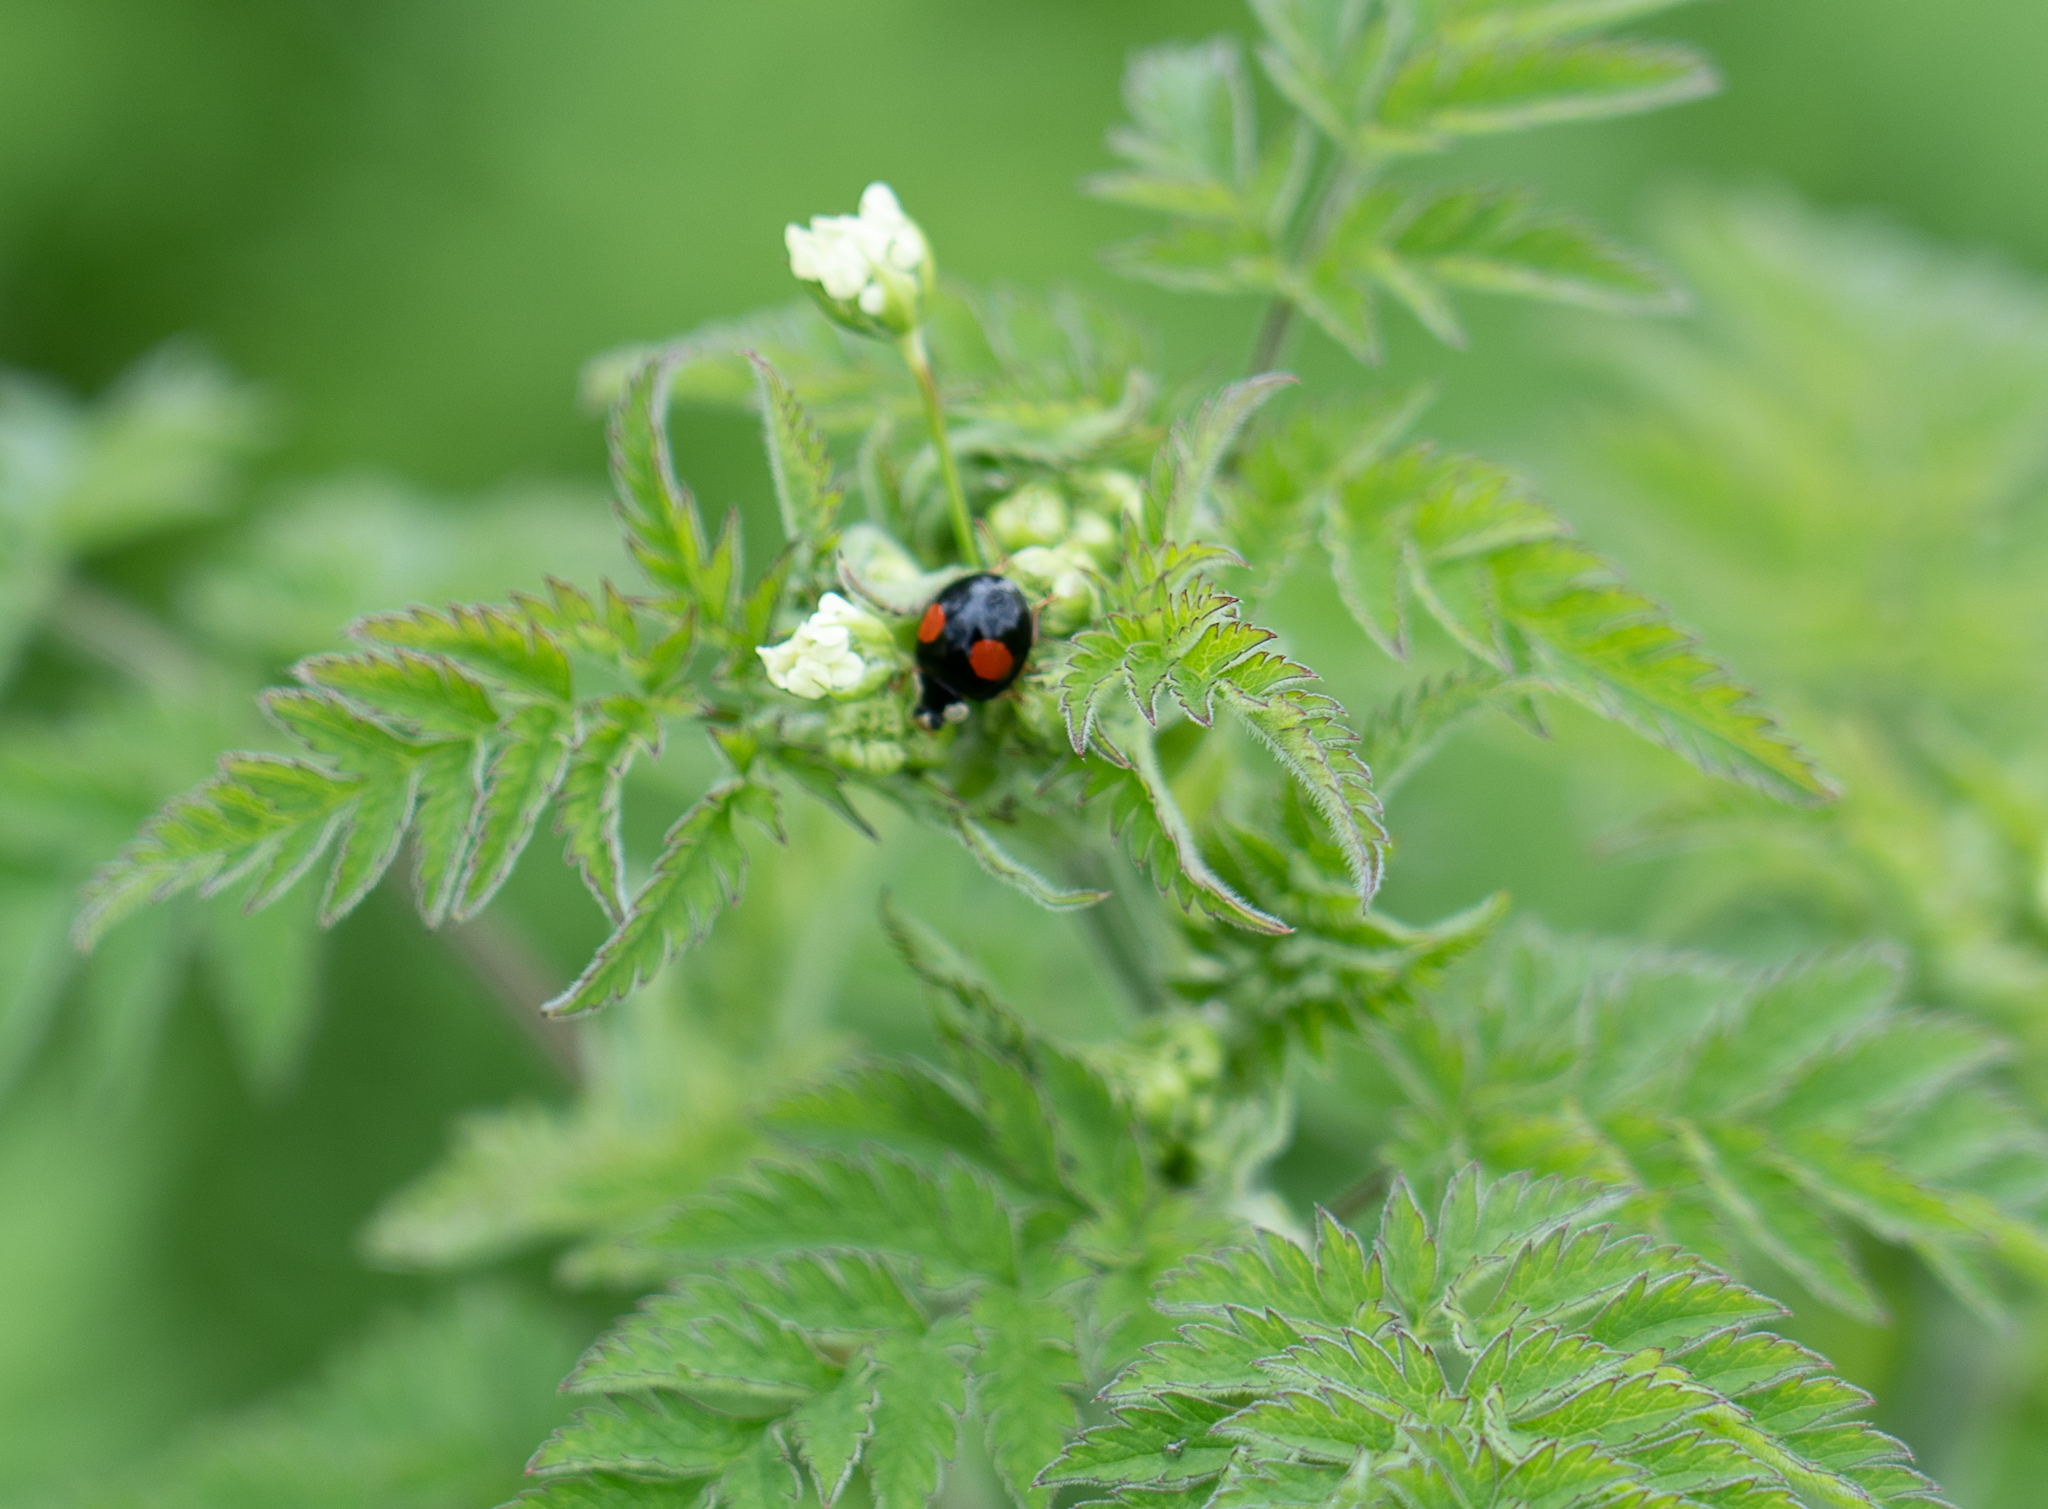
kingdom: Animalia
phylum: Arthropoda
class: Insecta
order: Coleoptera
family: Coccinellidae
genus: Harmonia
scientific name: Harmonia axyridis
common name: Harlequin ladybird
